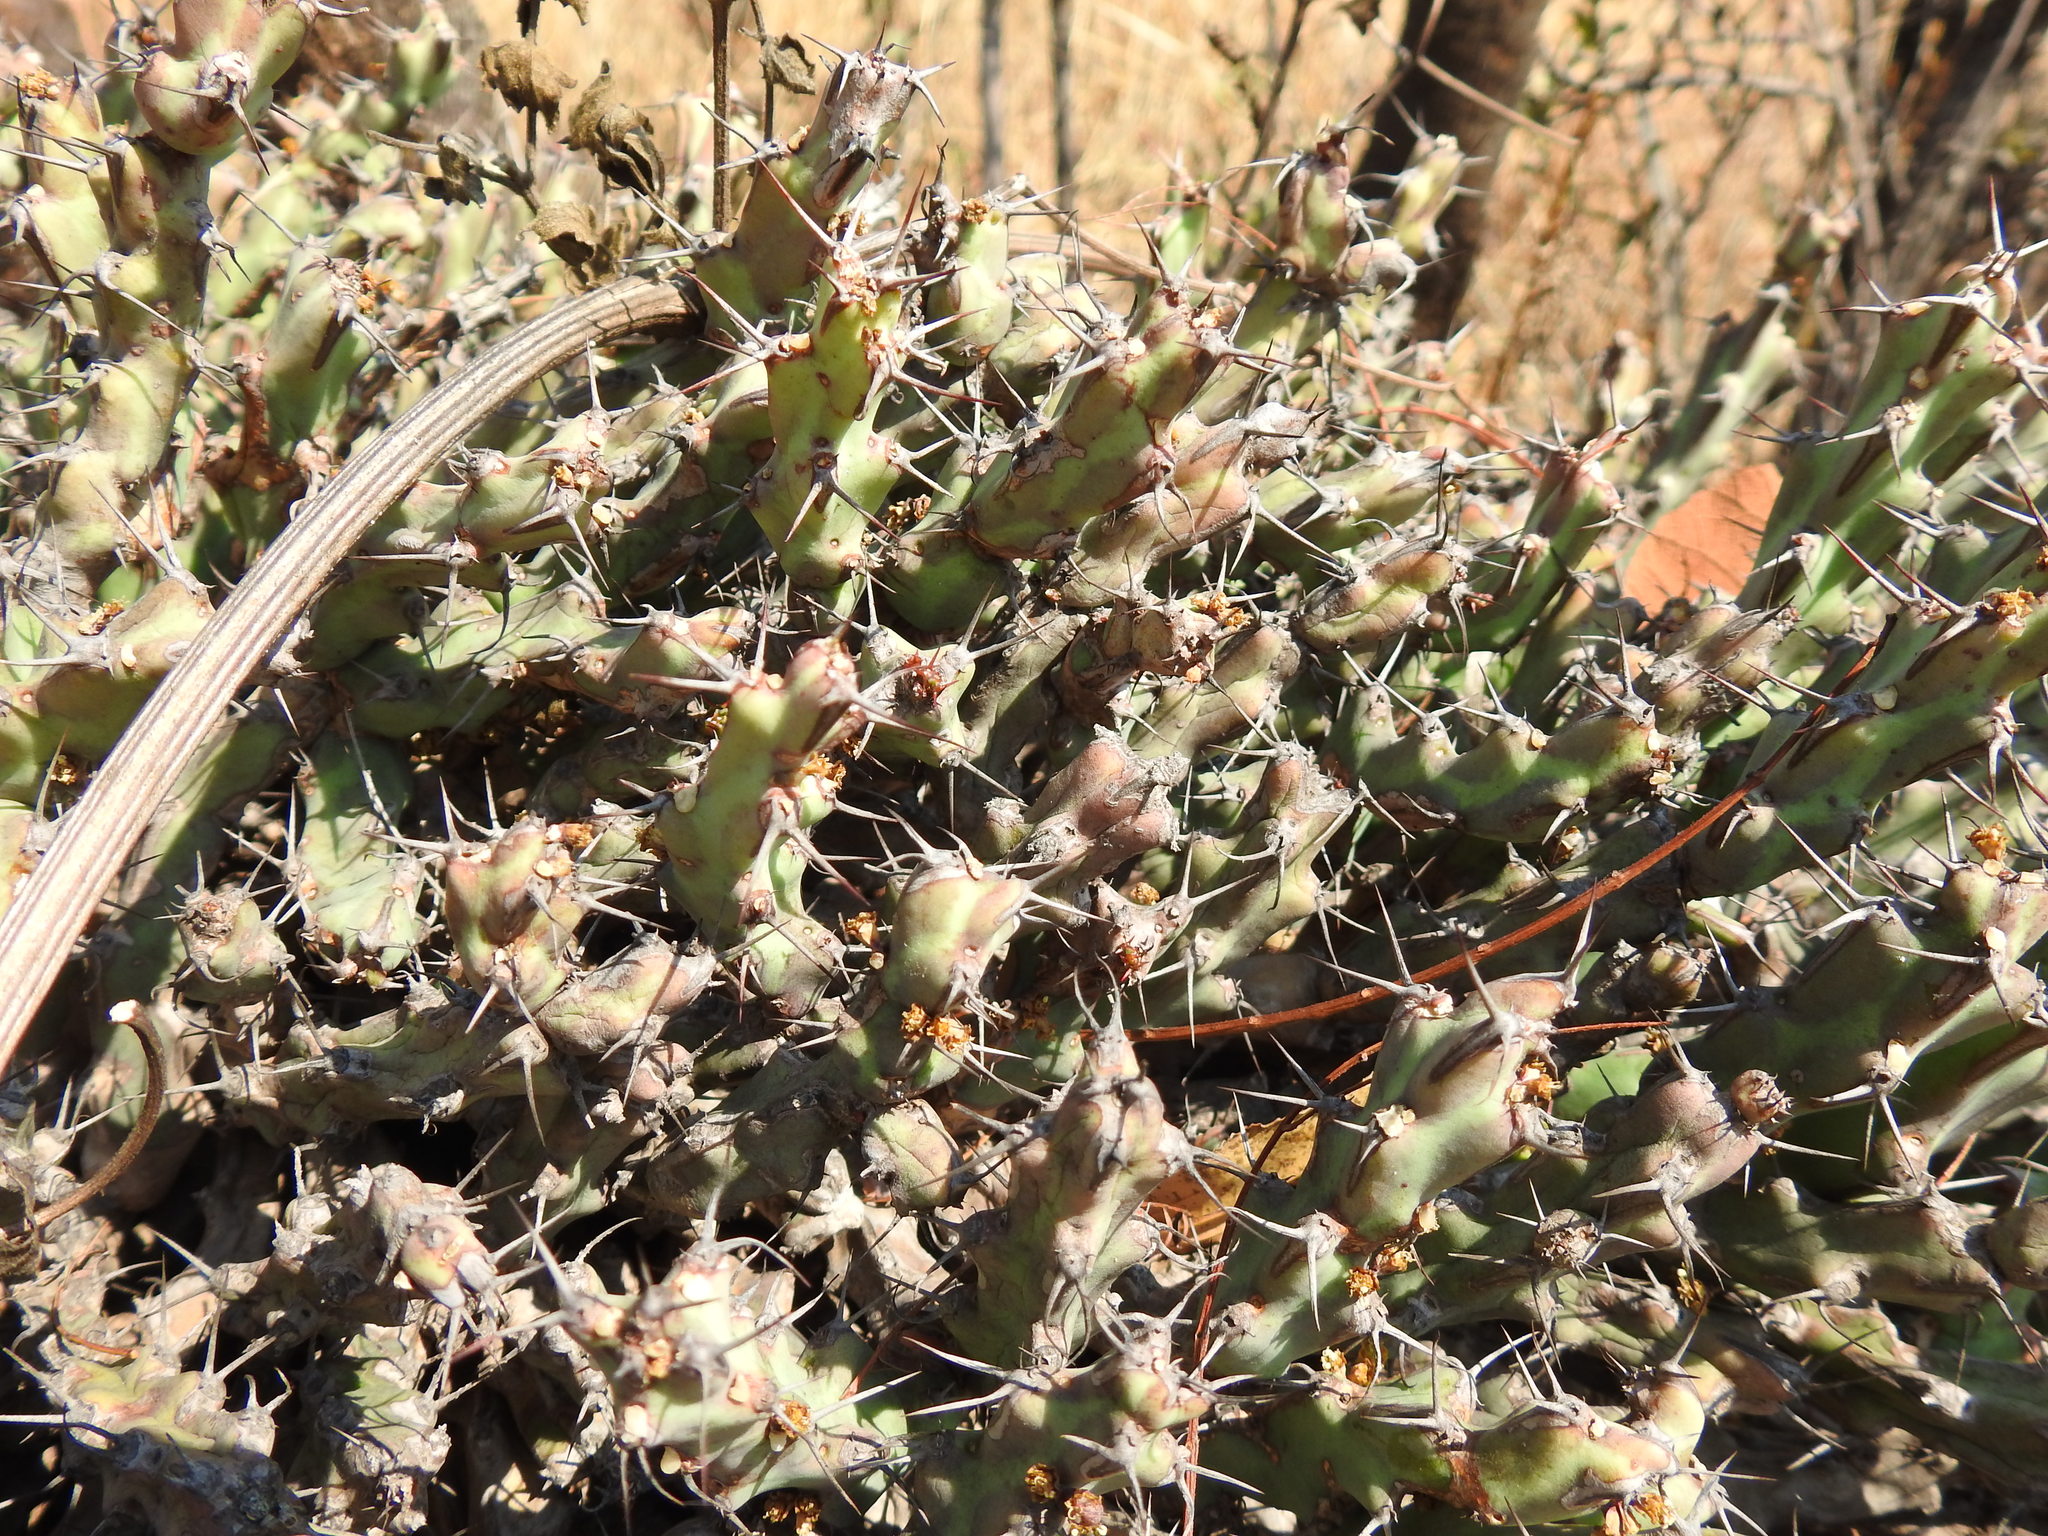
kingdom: Plantae
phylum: Tracheophyta
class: Magnoliopsida
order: Malpighiales
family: Euphorbiaceae
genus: Euphorbia
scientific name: Euphorbia schinzii
